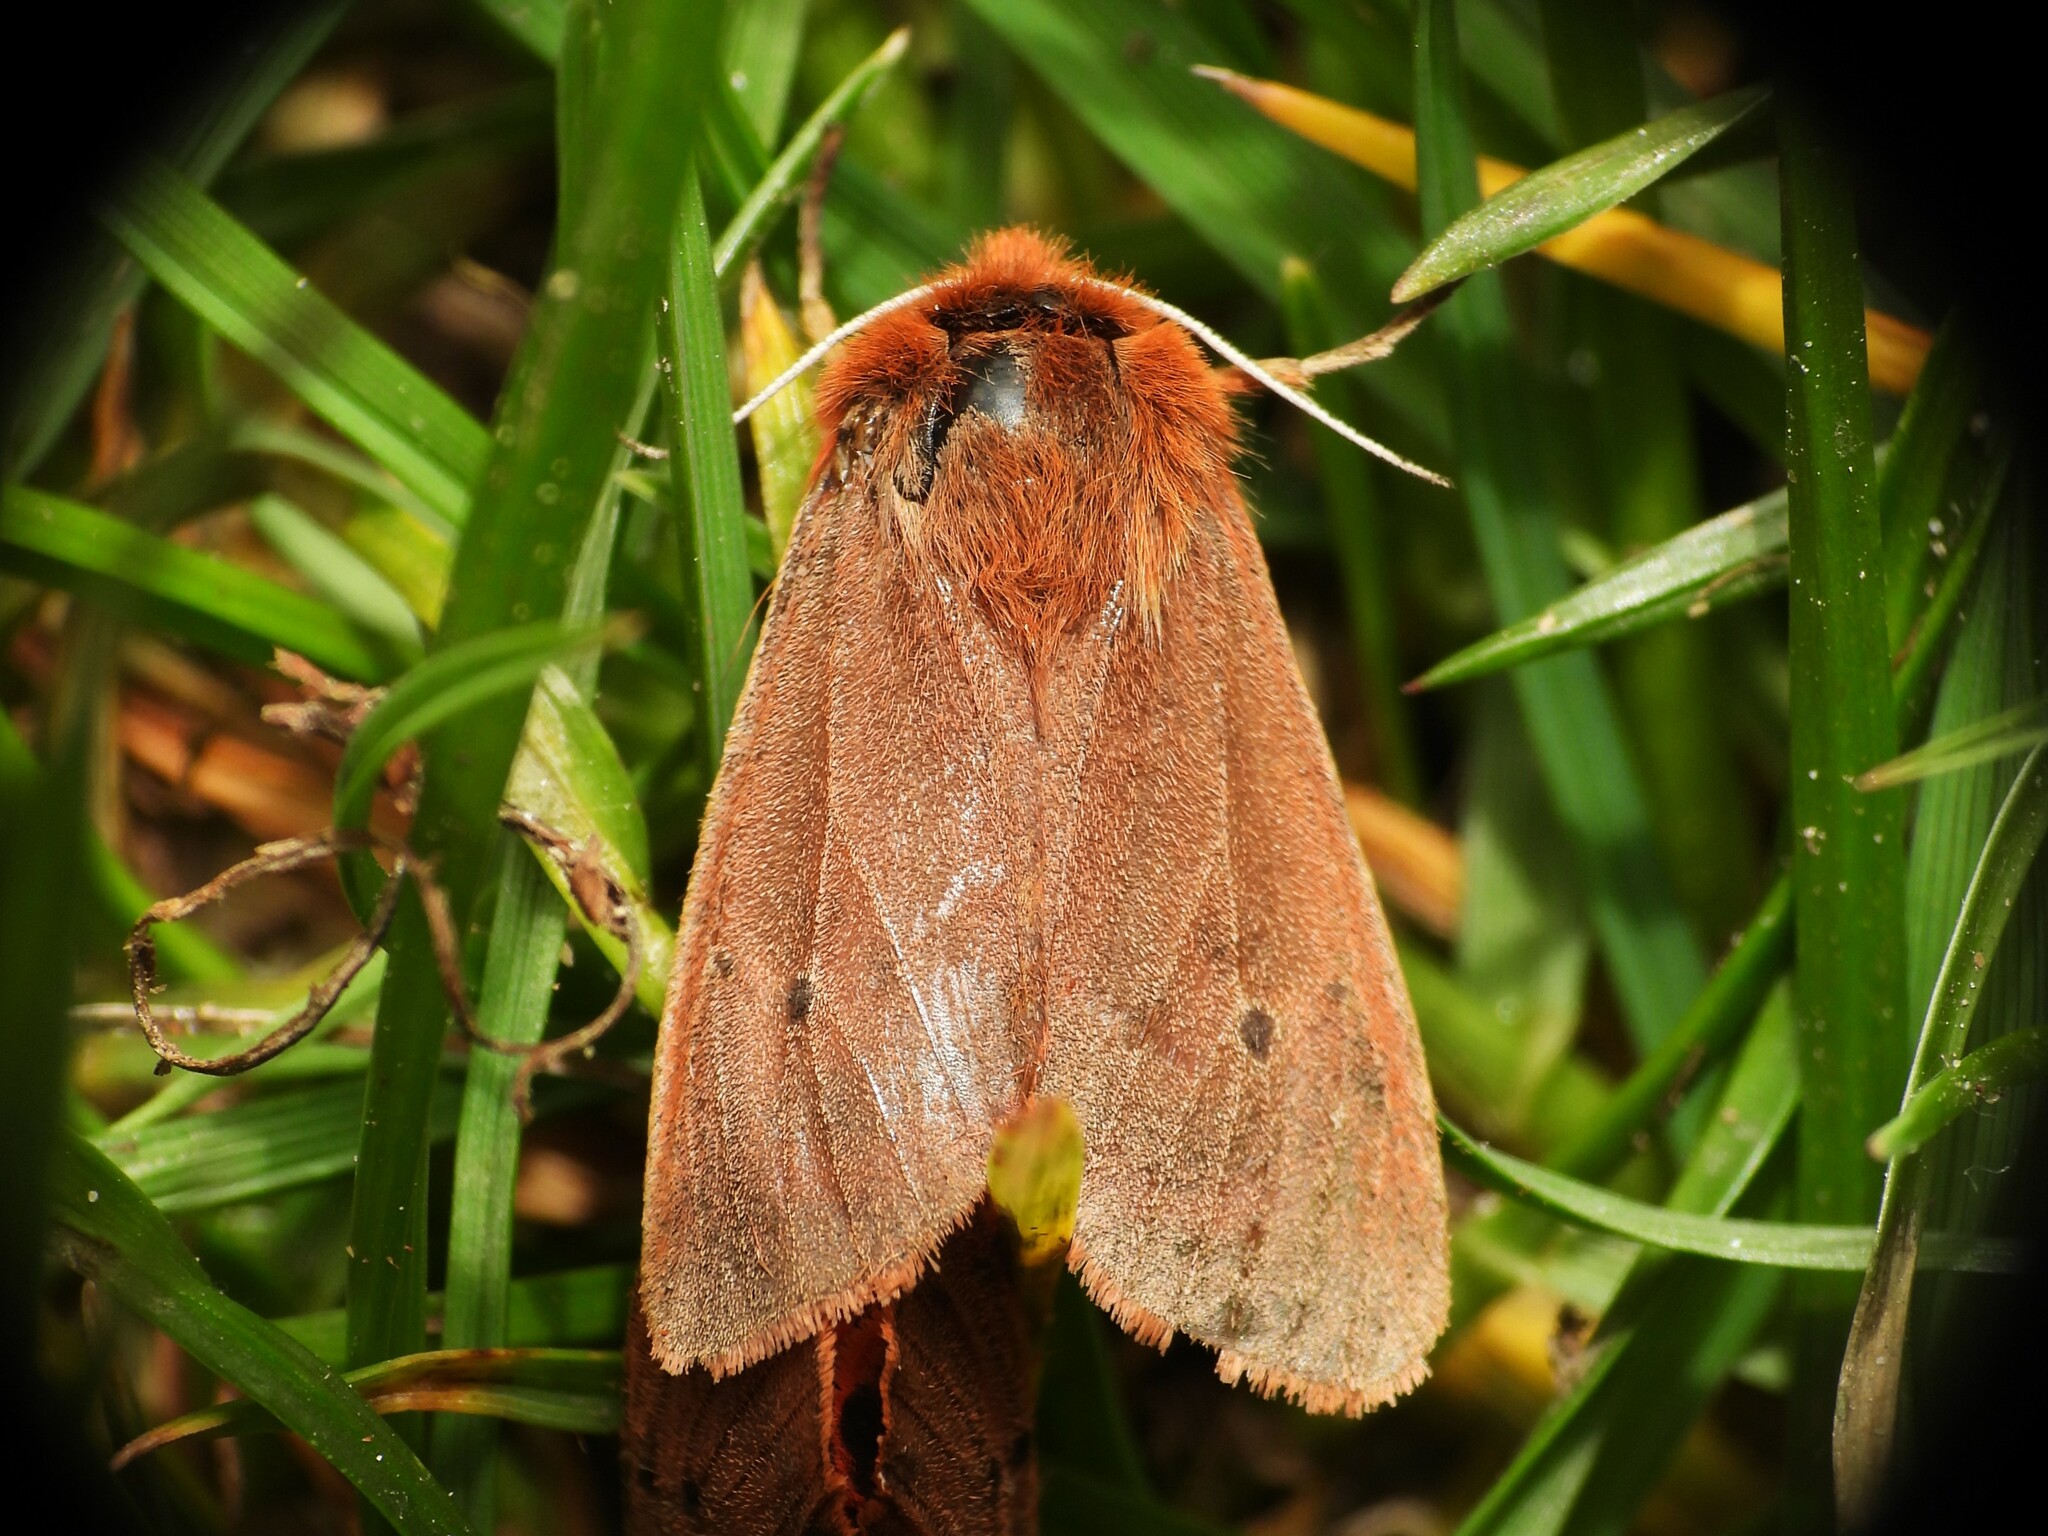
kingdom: Animalia
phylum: Arthropoda
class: Insecta
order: Lepidoptera
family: Erebidae
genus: Phragmatobia
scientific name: Phragmatobia fuliginosa
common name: Ruby tiger
